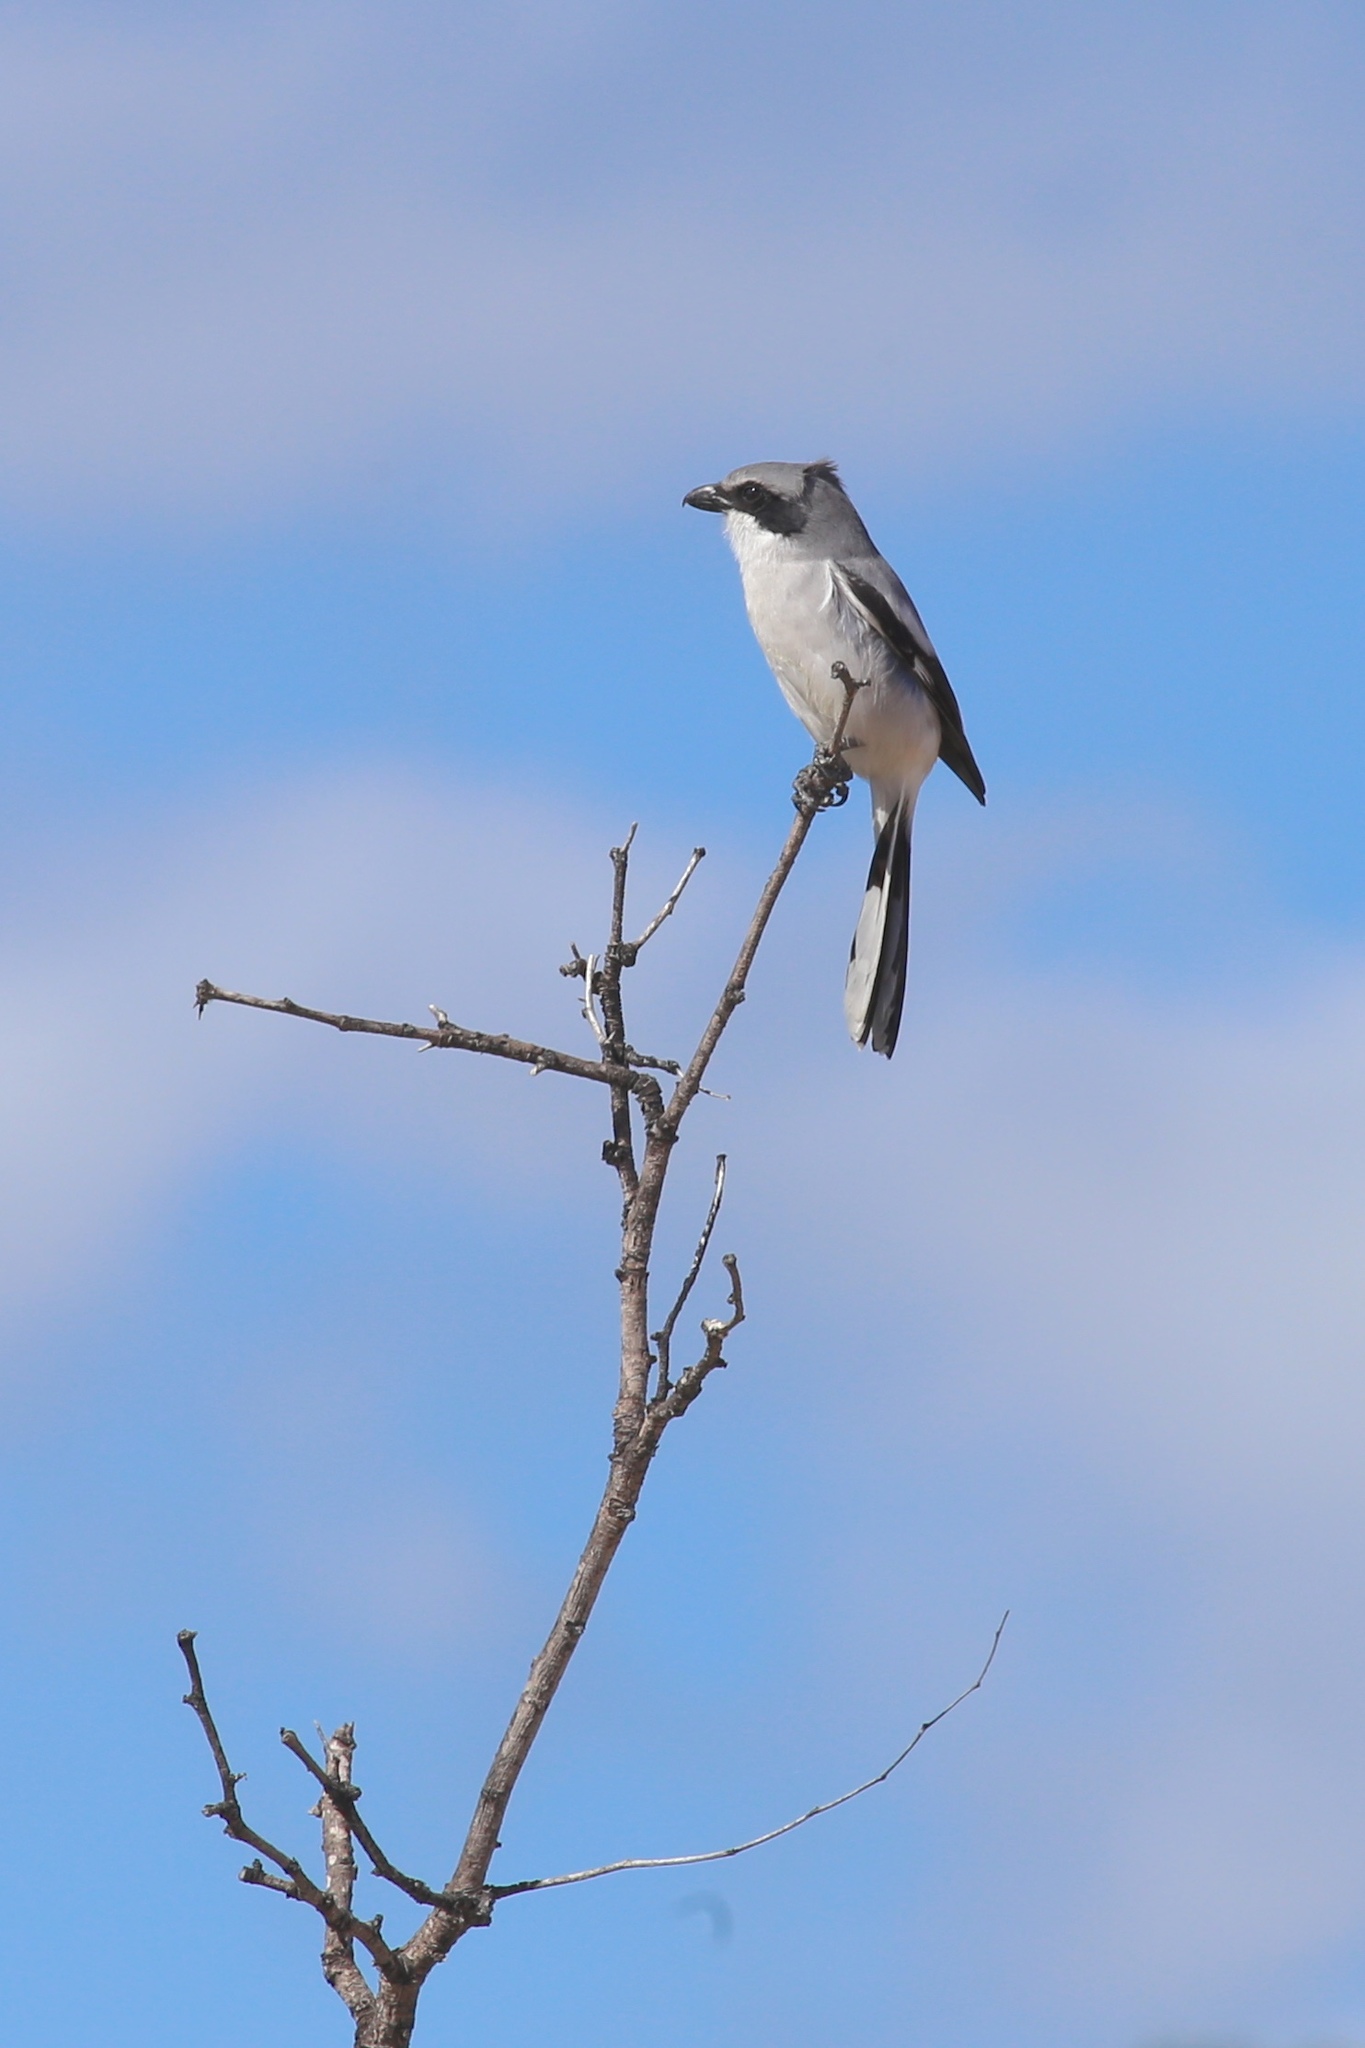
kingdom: Animalia
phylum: Chordata
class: Aves
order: Passeriformes
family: Laniidae
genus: Lanius
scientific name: Lanius ludovicianus
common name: Loggerhead shrike
